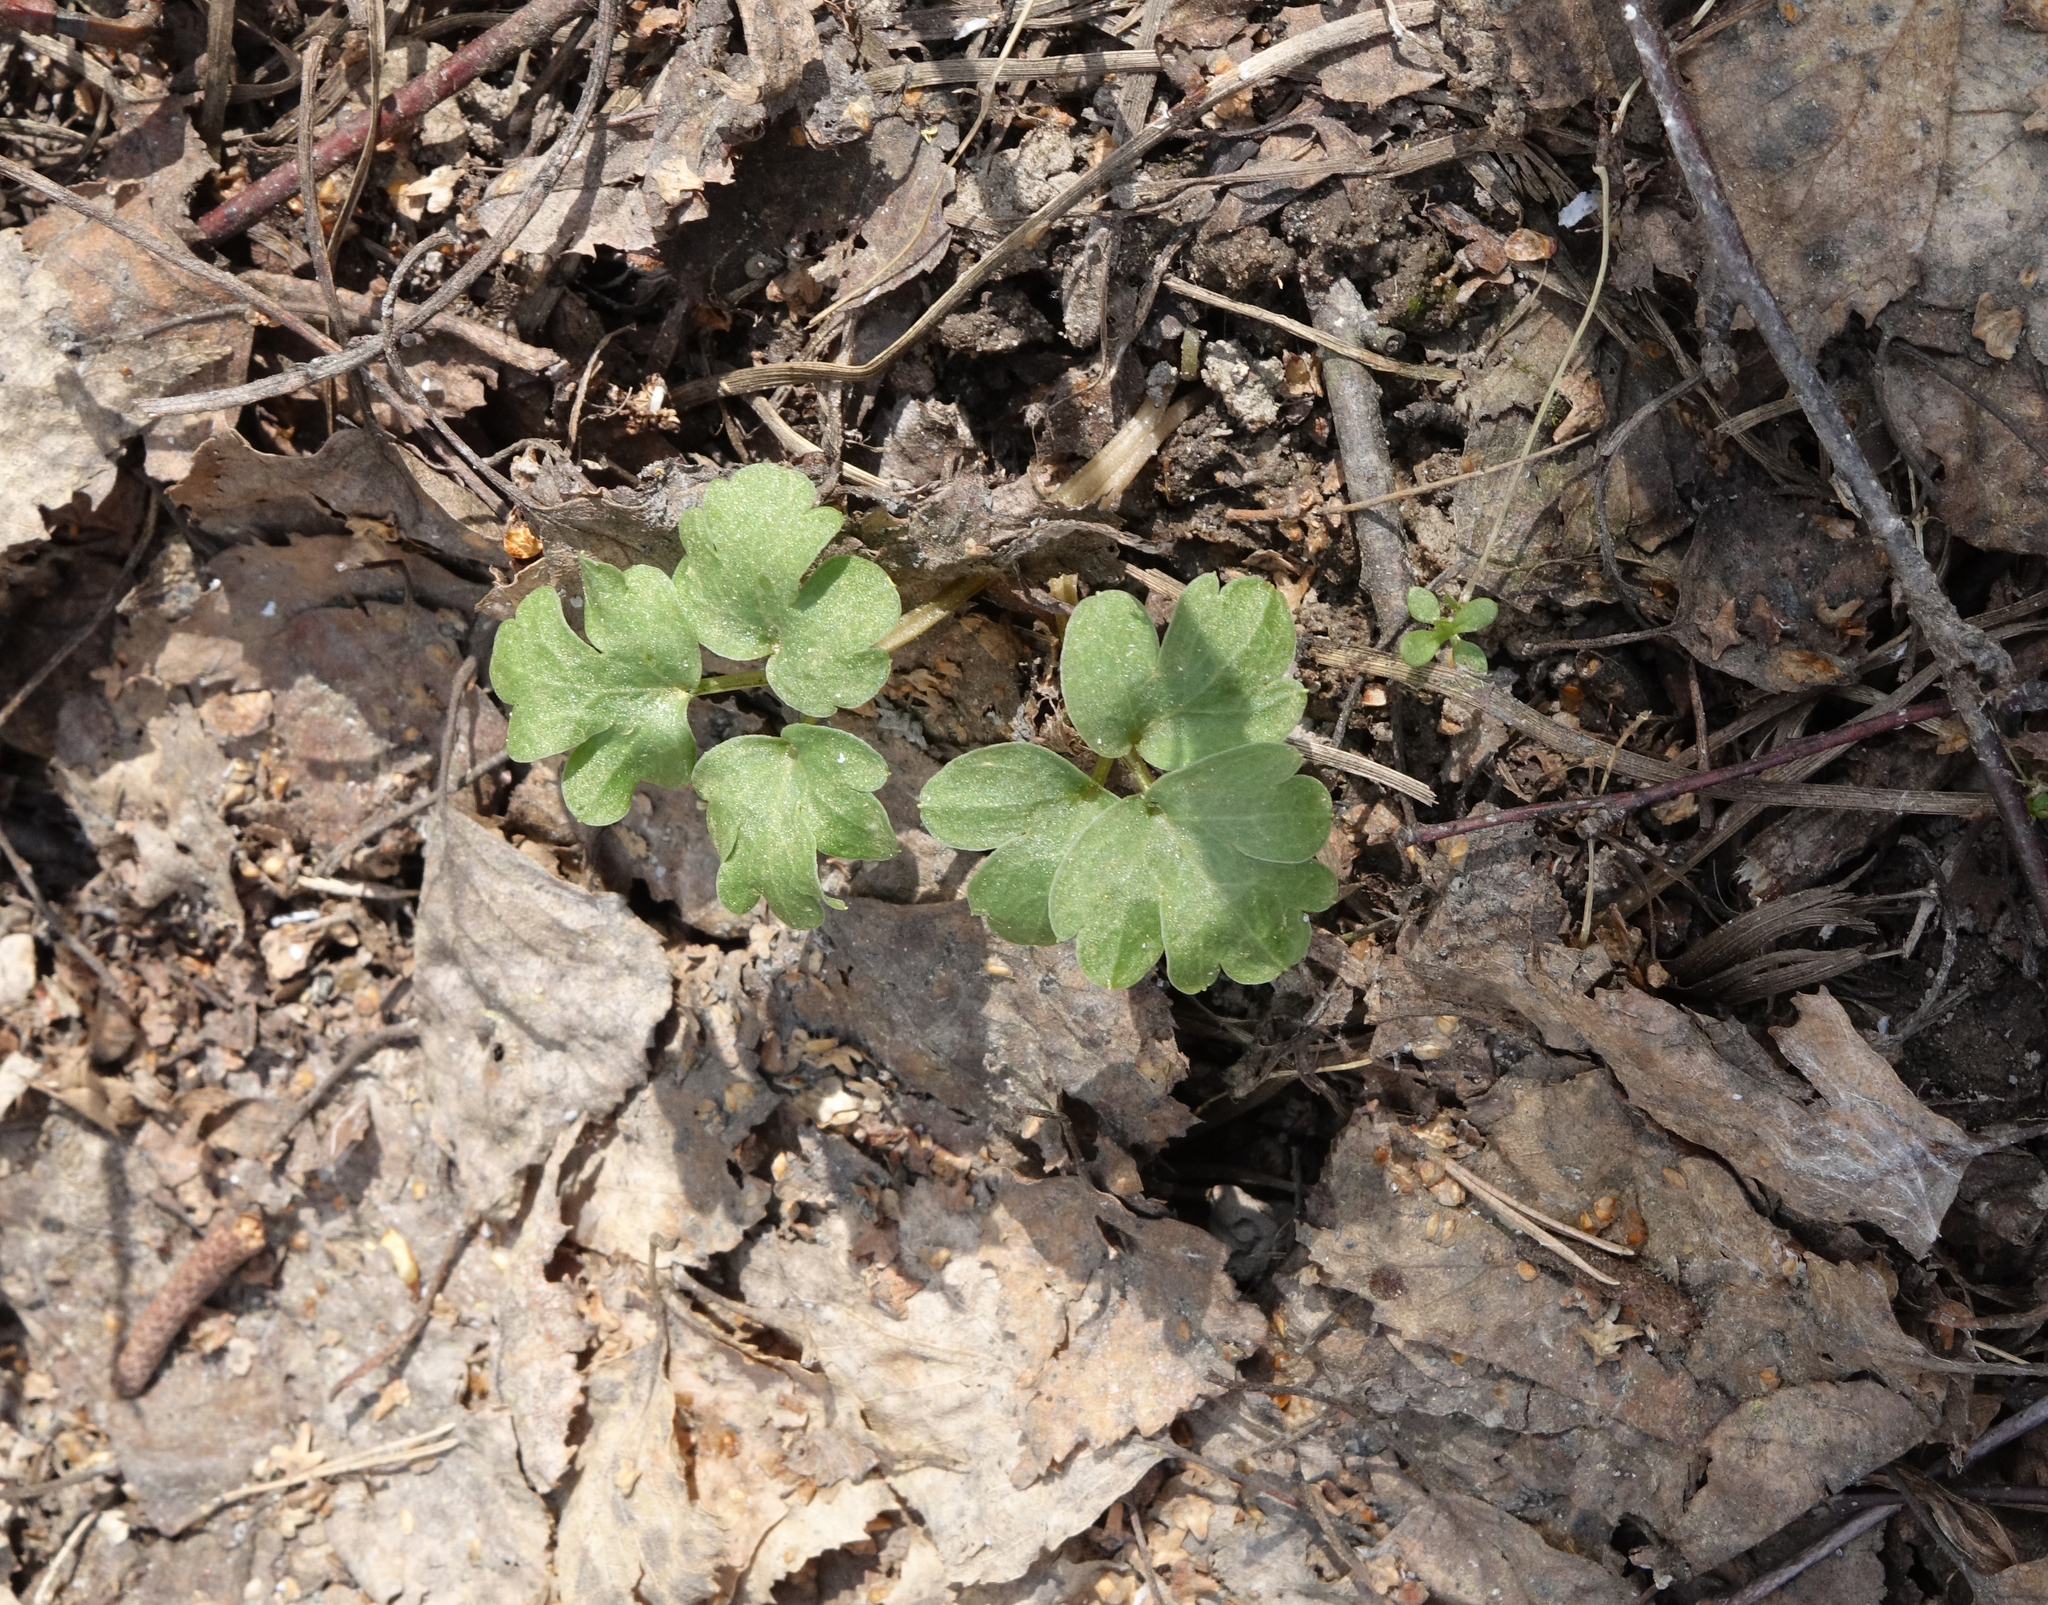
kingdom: Plantae
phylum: Tracheophyta
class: Magnoliopsida
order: Dipsacales
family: Viburnaceae
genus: Adoxa
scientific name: Adoxa moschatellina
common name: Moschatel
